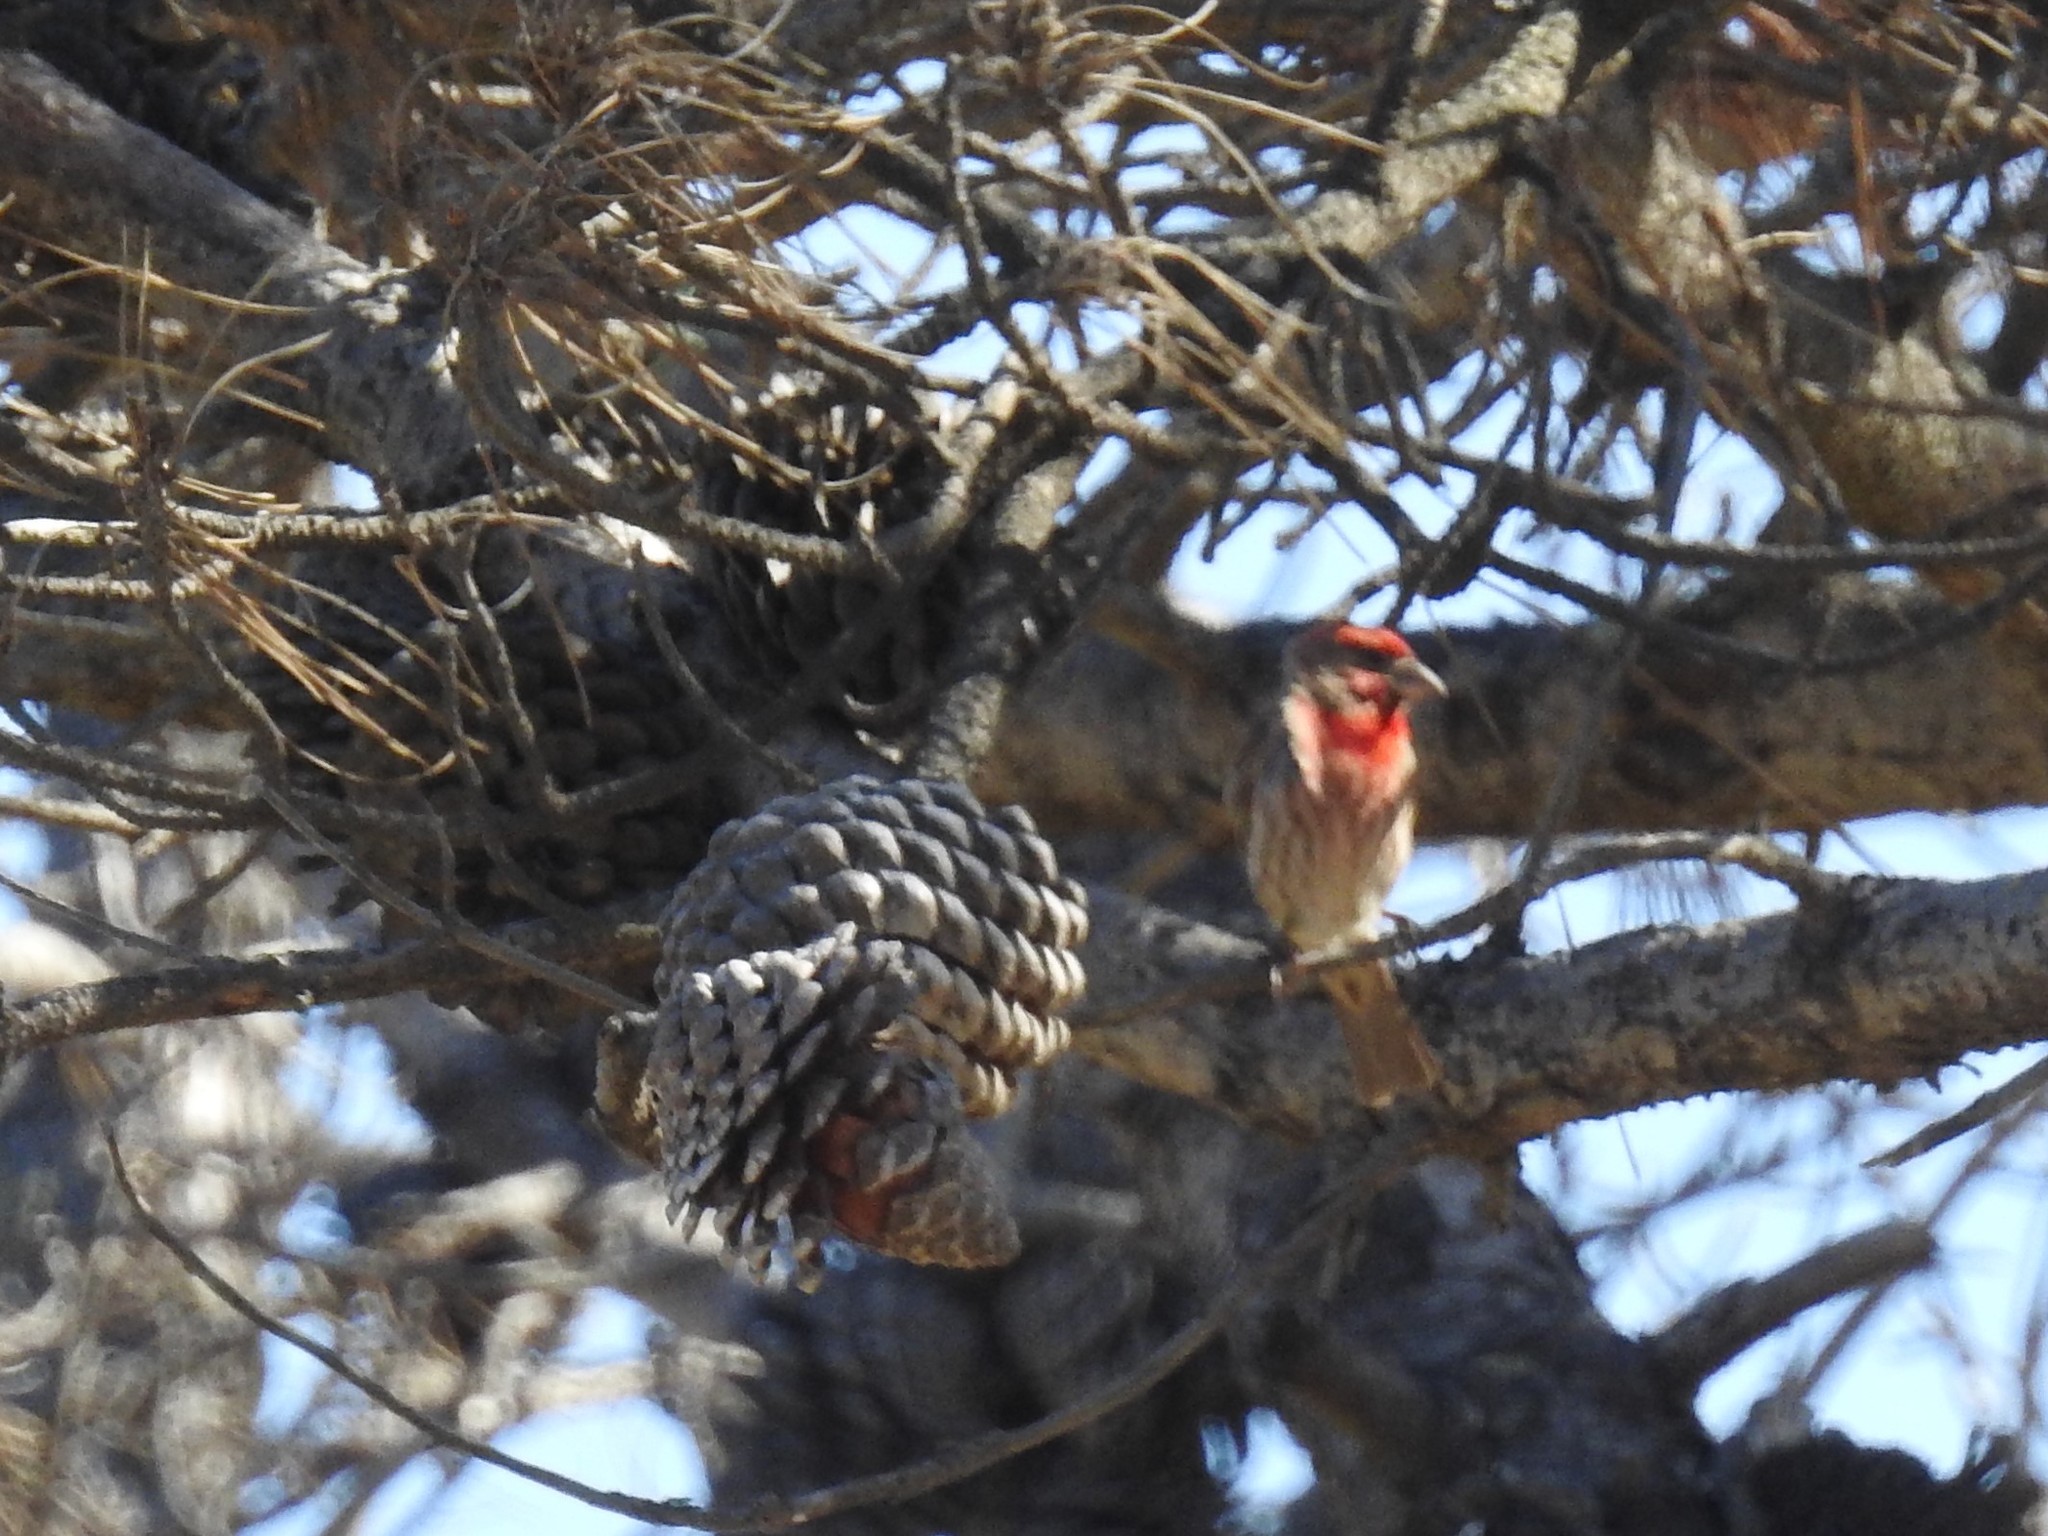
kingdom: Animalia
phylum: Chordata
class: Aves
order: Passeriformes
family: Fringillidae
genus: Haemorhous
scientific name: Haemorhous mexicanus
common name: House finch
